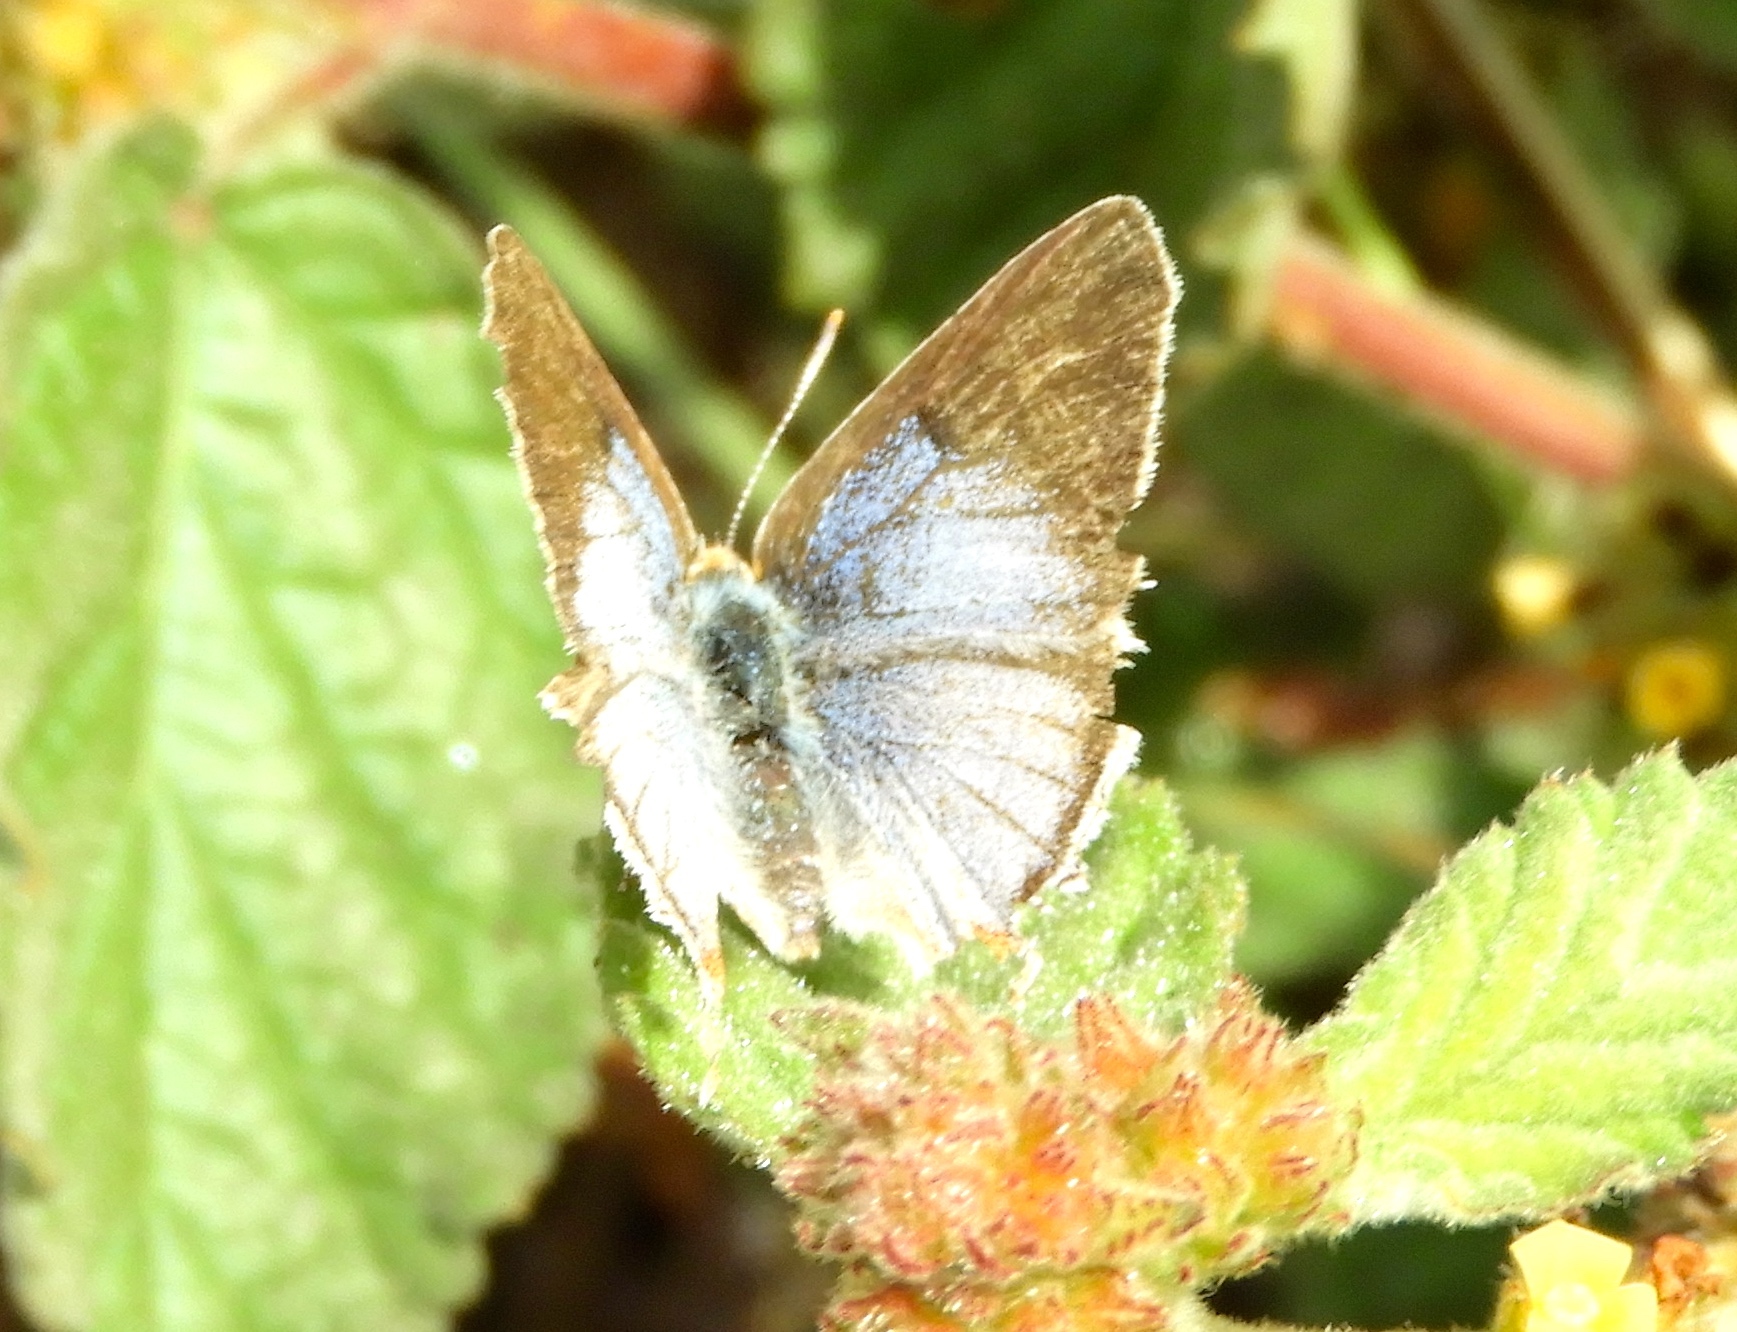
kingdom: Animalia
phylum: Arthropoda
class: Insecta
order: Lepidoptera
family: Lycaenidae
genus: Dolymorpha
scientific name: Dolymorpha jada
